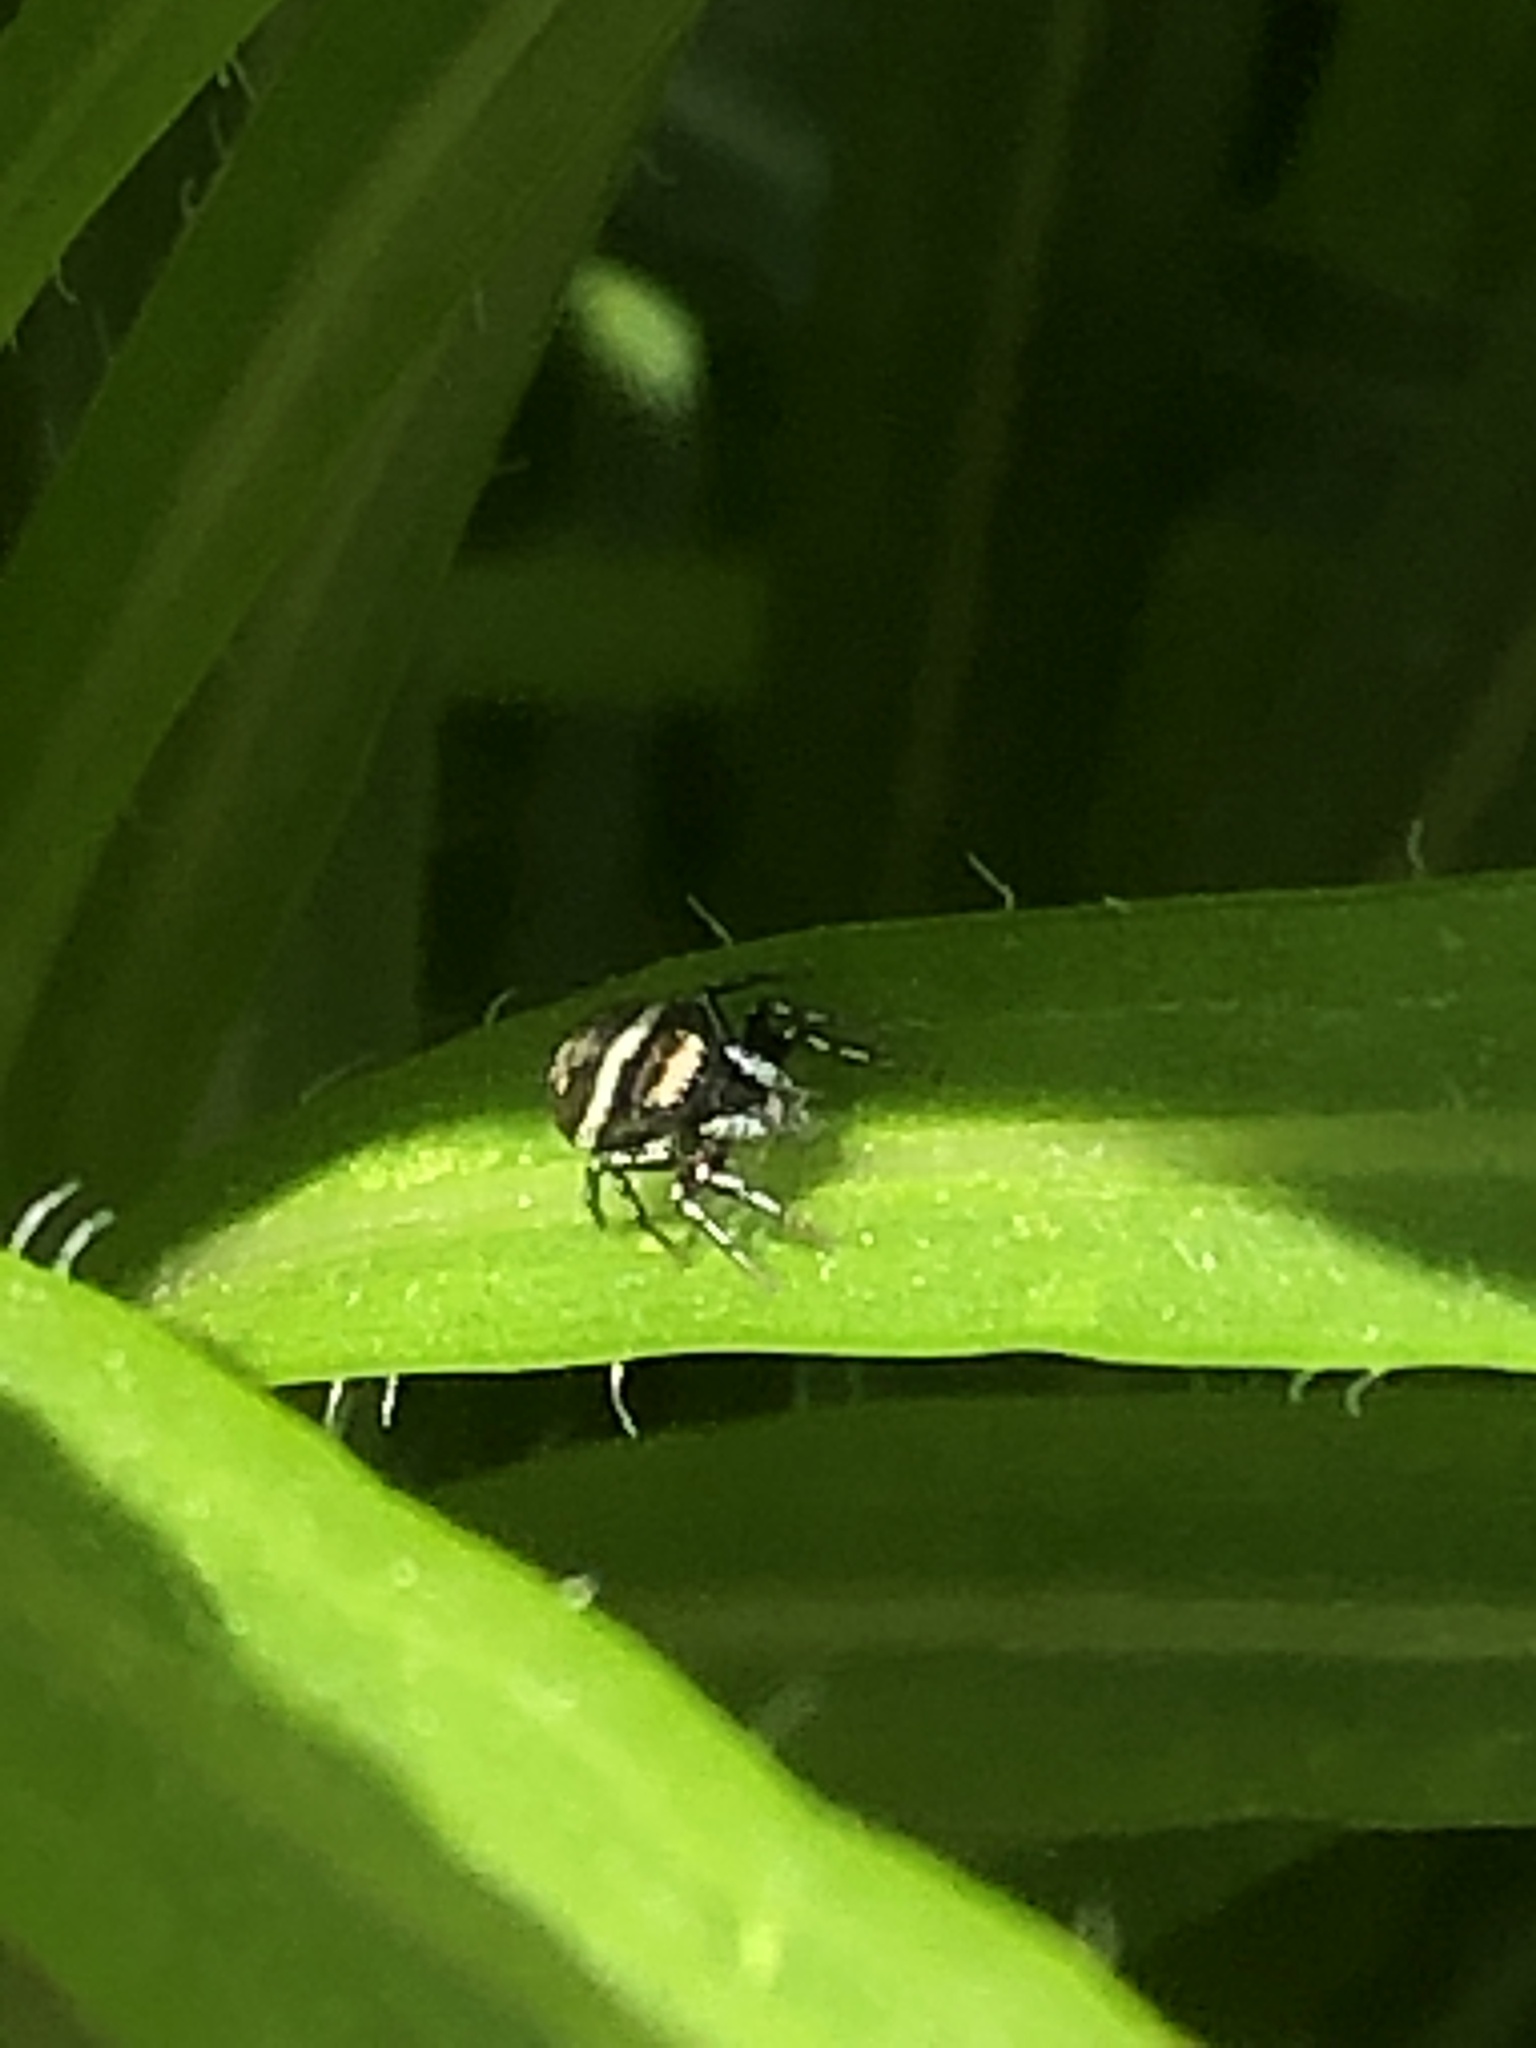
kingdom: Animalia
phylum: Arthropoda
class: Arachnida
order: Araneae
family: Salticidae
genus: Heliophanus
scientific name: Heliophanus kochii
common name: Sun jumping spider
